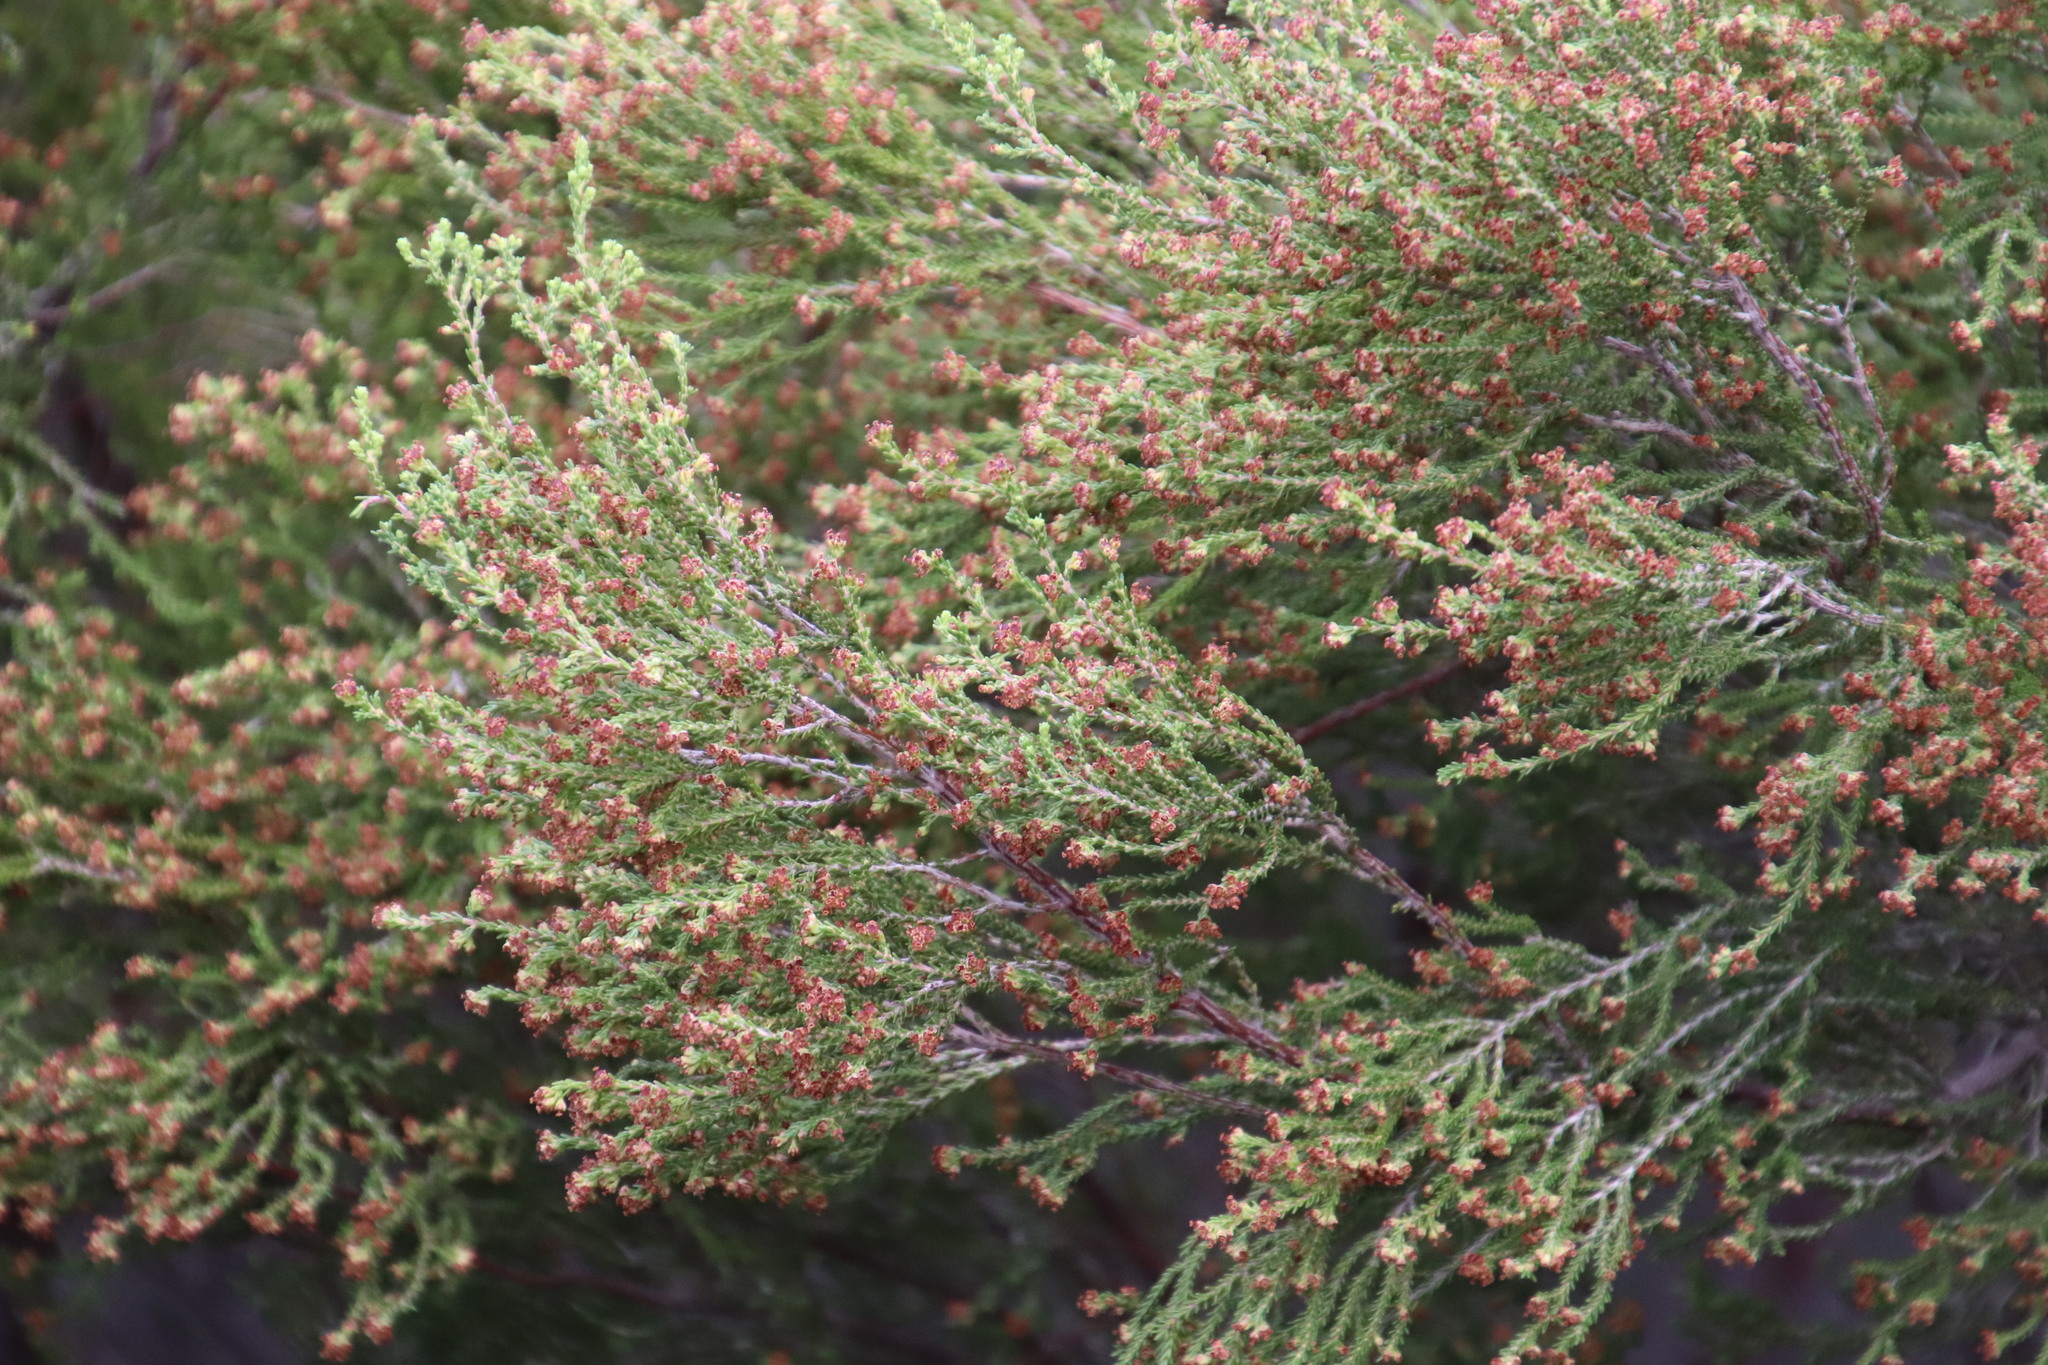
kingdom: Plantae
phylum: Tracheophyta
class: Magnoliopsida
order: Ericales
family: Ericaceae
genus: Erica
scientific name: Erica tristis
